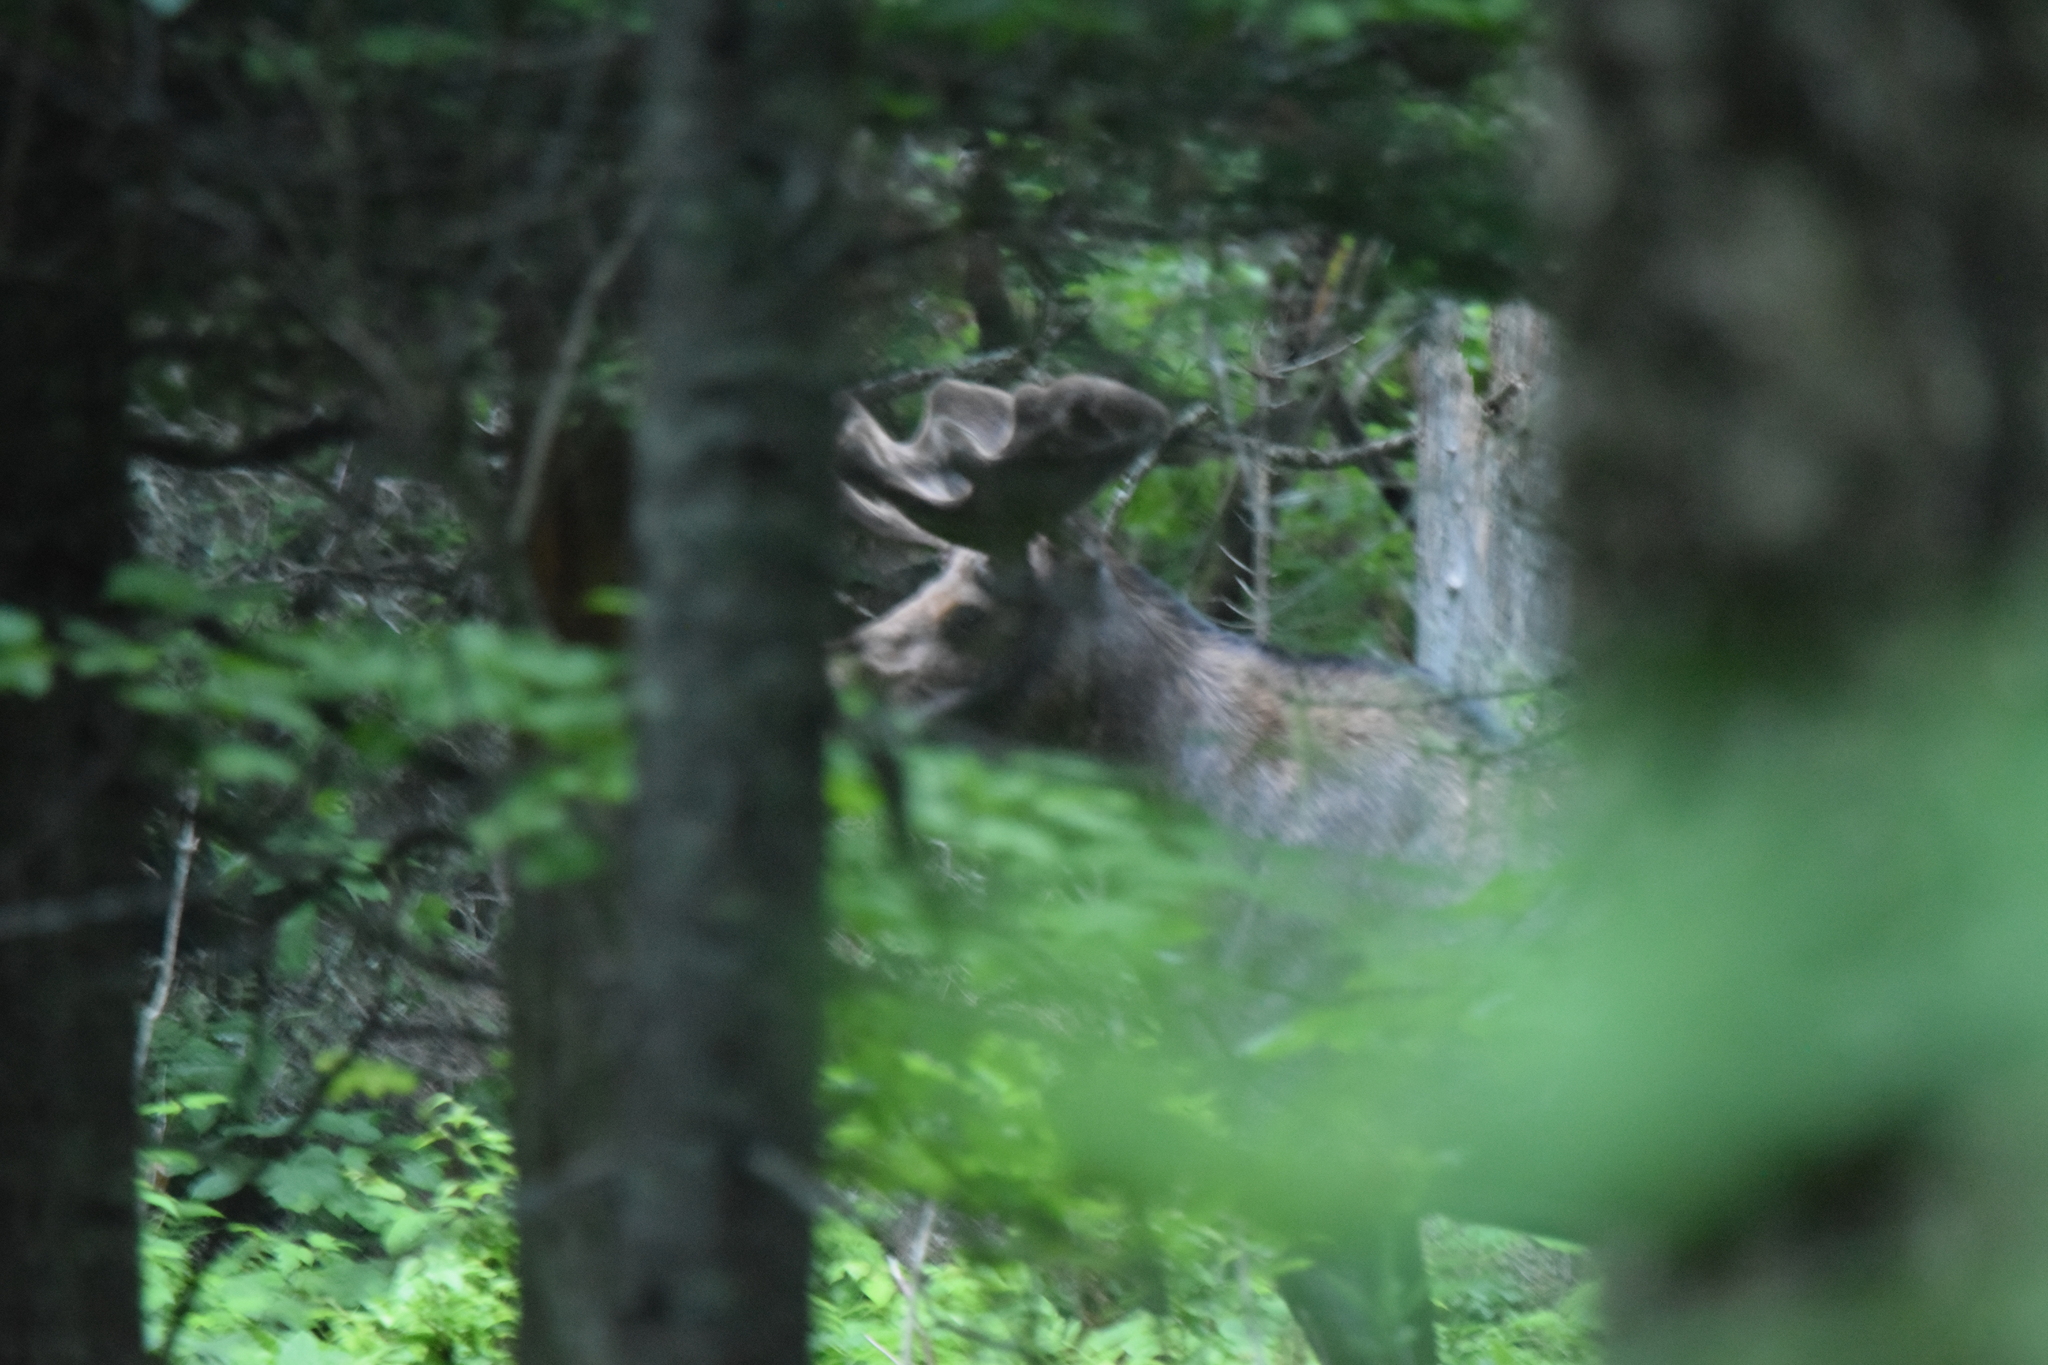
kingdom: Animalia
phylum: Chordata
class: Mammalia
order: Artiodactyla
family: Cervidae
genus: Alces
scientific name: Alces alces
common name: Moose
